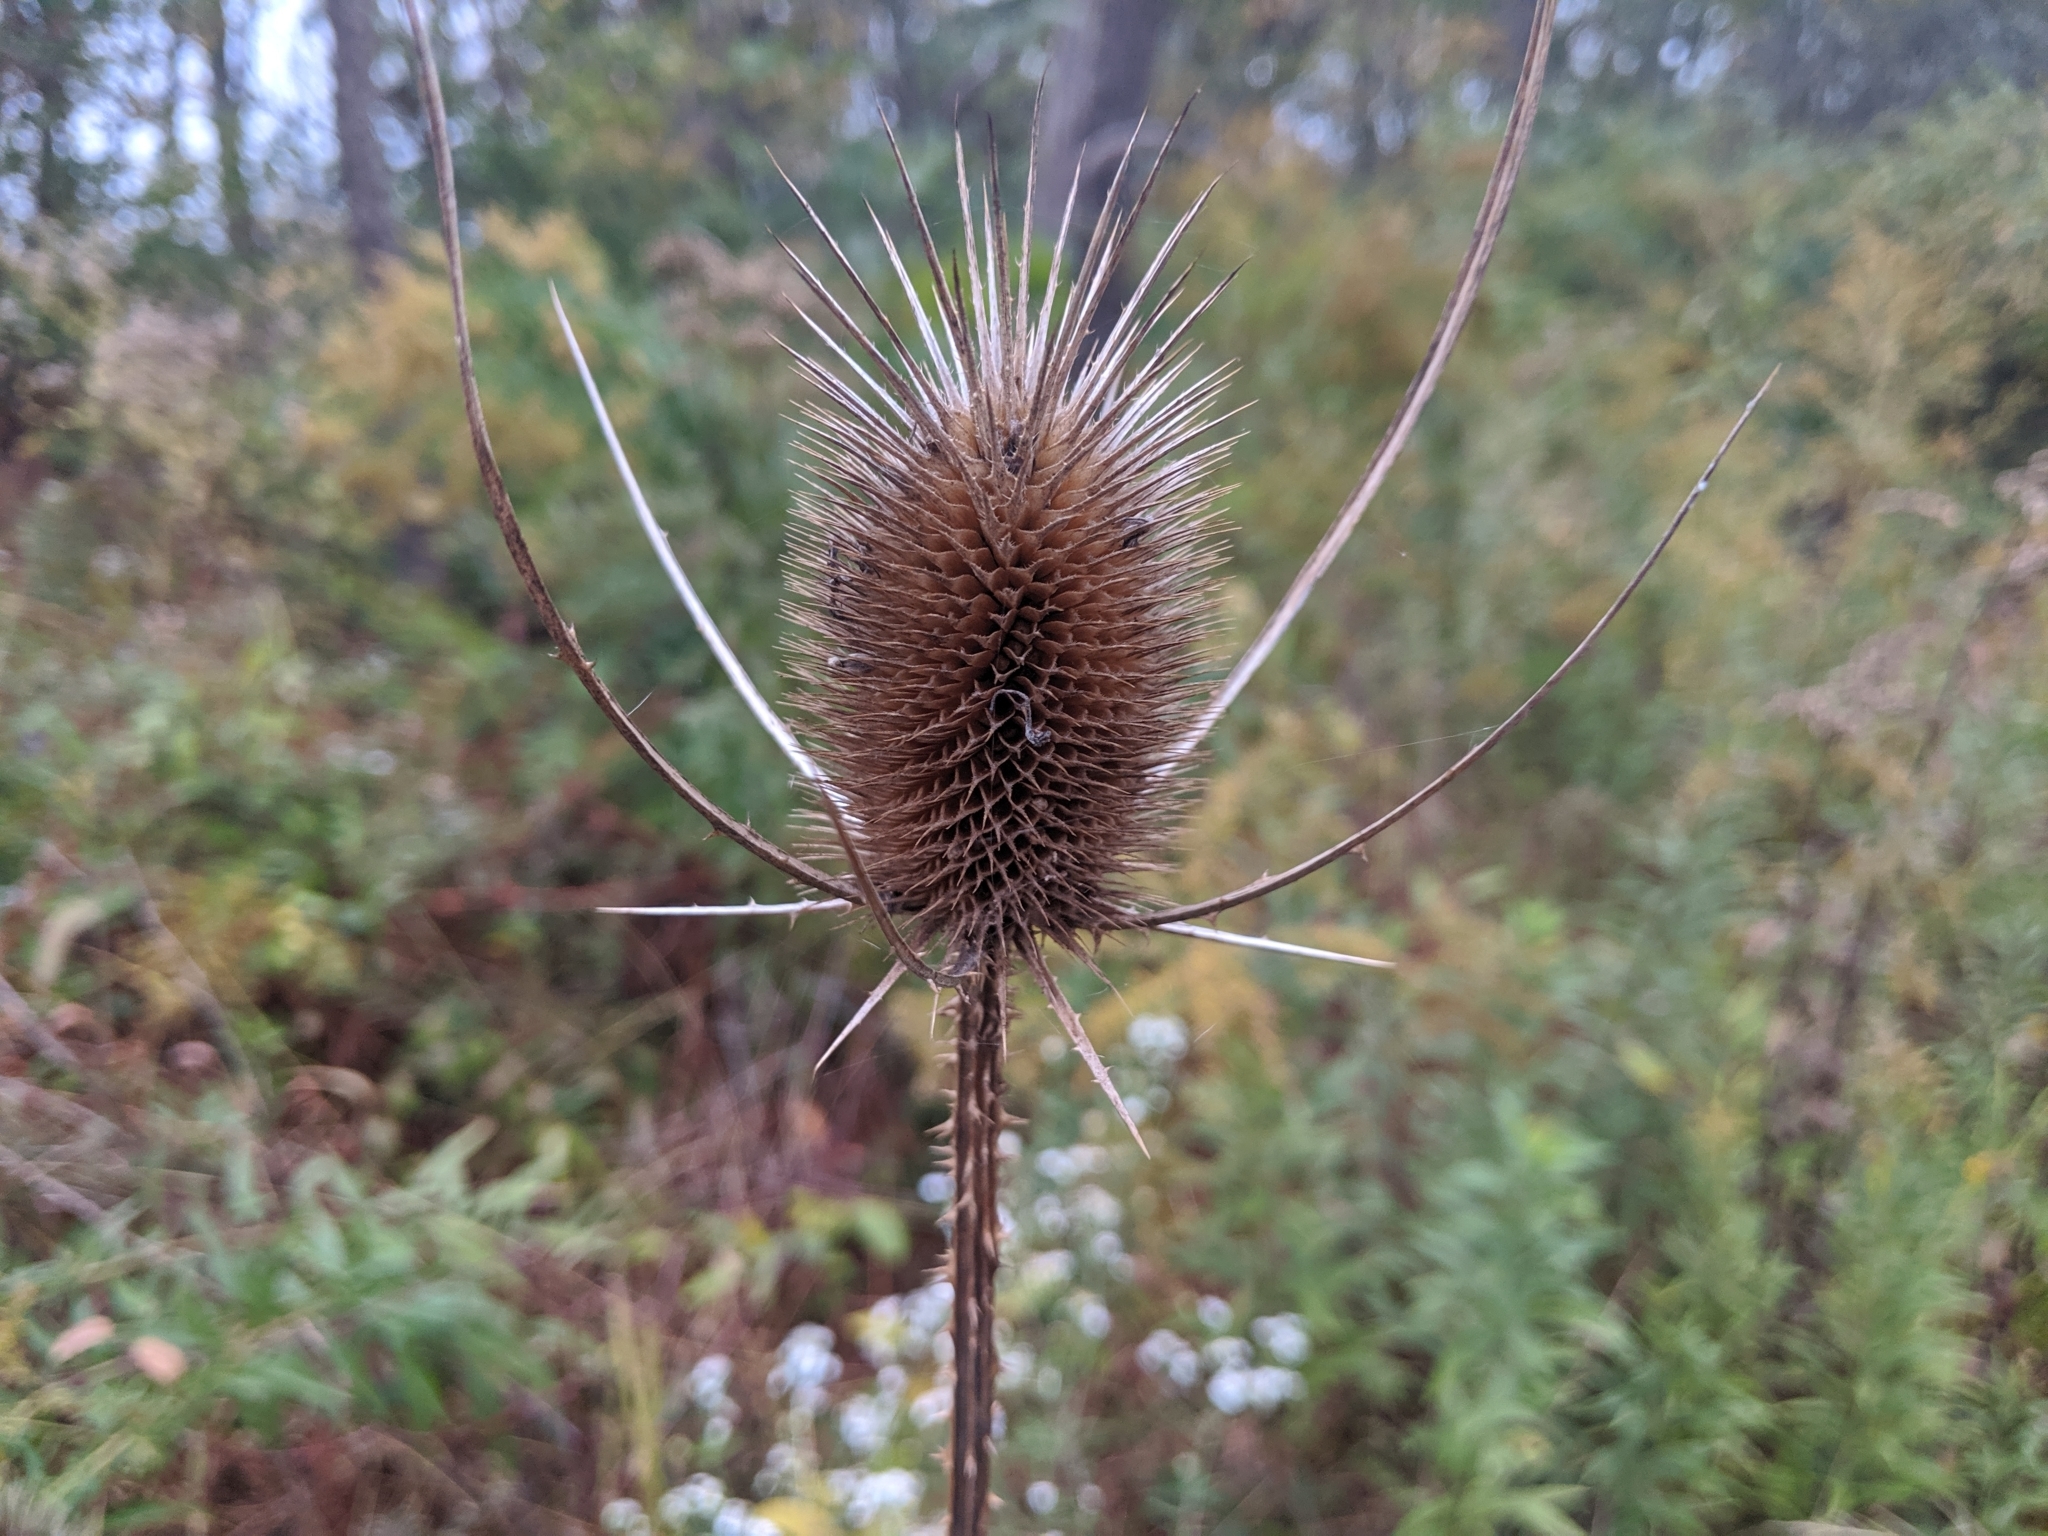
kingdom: Plantae
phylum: Tracheophyta
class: Magnoliopsida
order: Dipsacales
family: Caprifoliaceae
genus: Dipsacus
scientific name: Dipsacus fullonum
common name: Teasel
